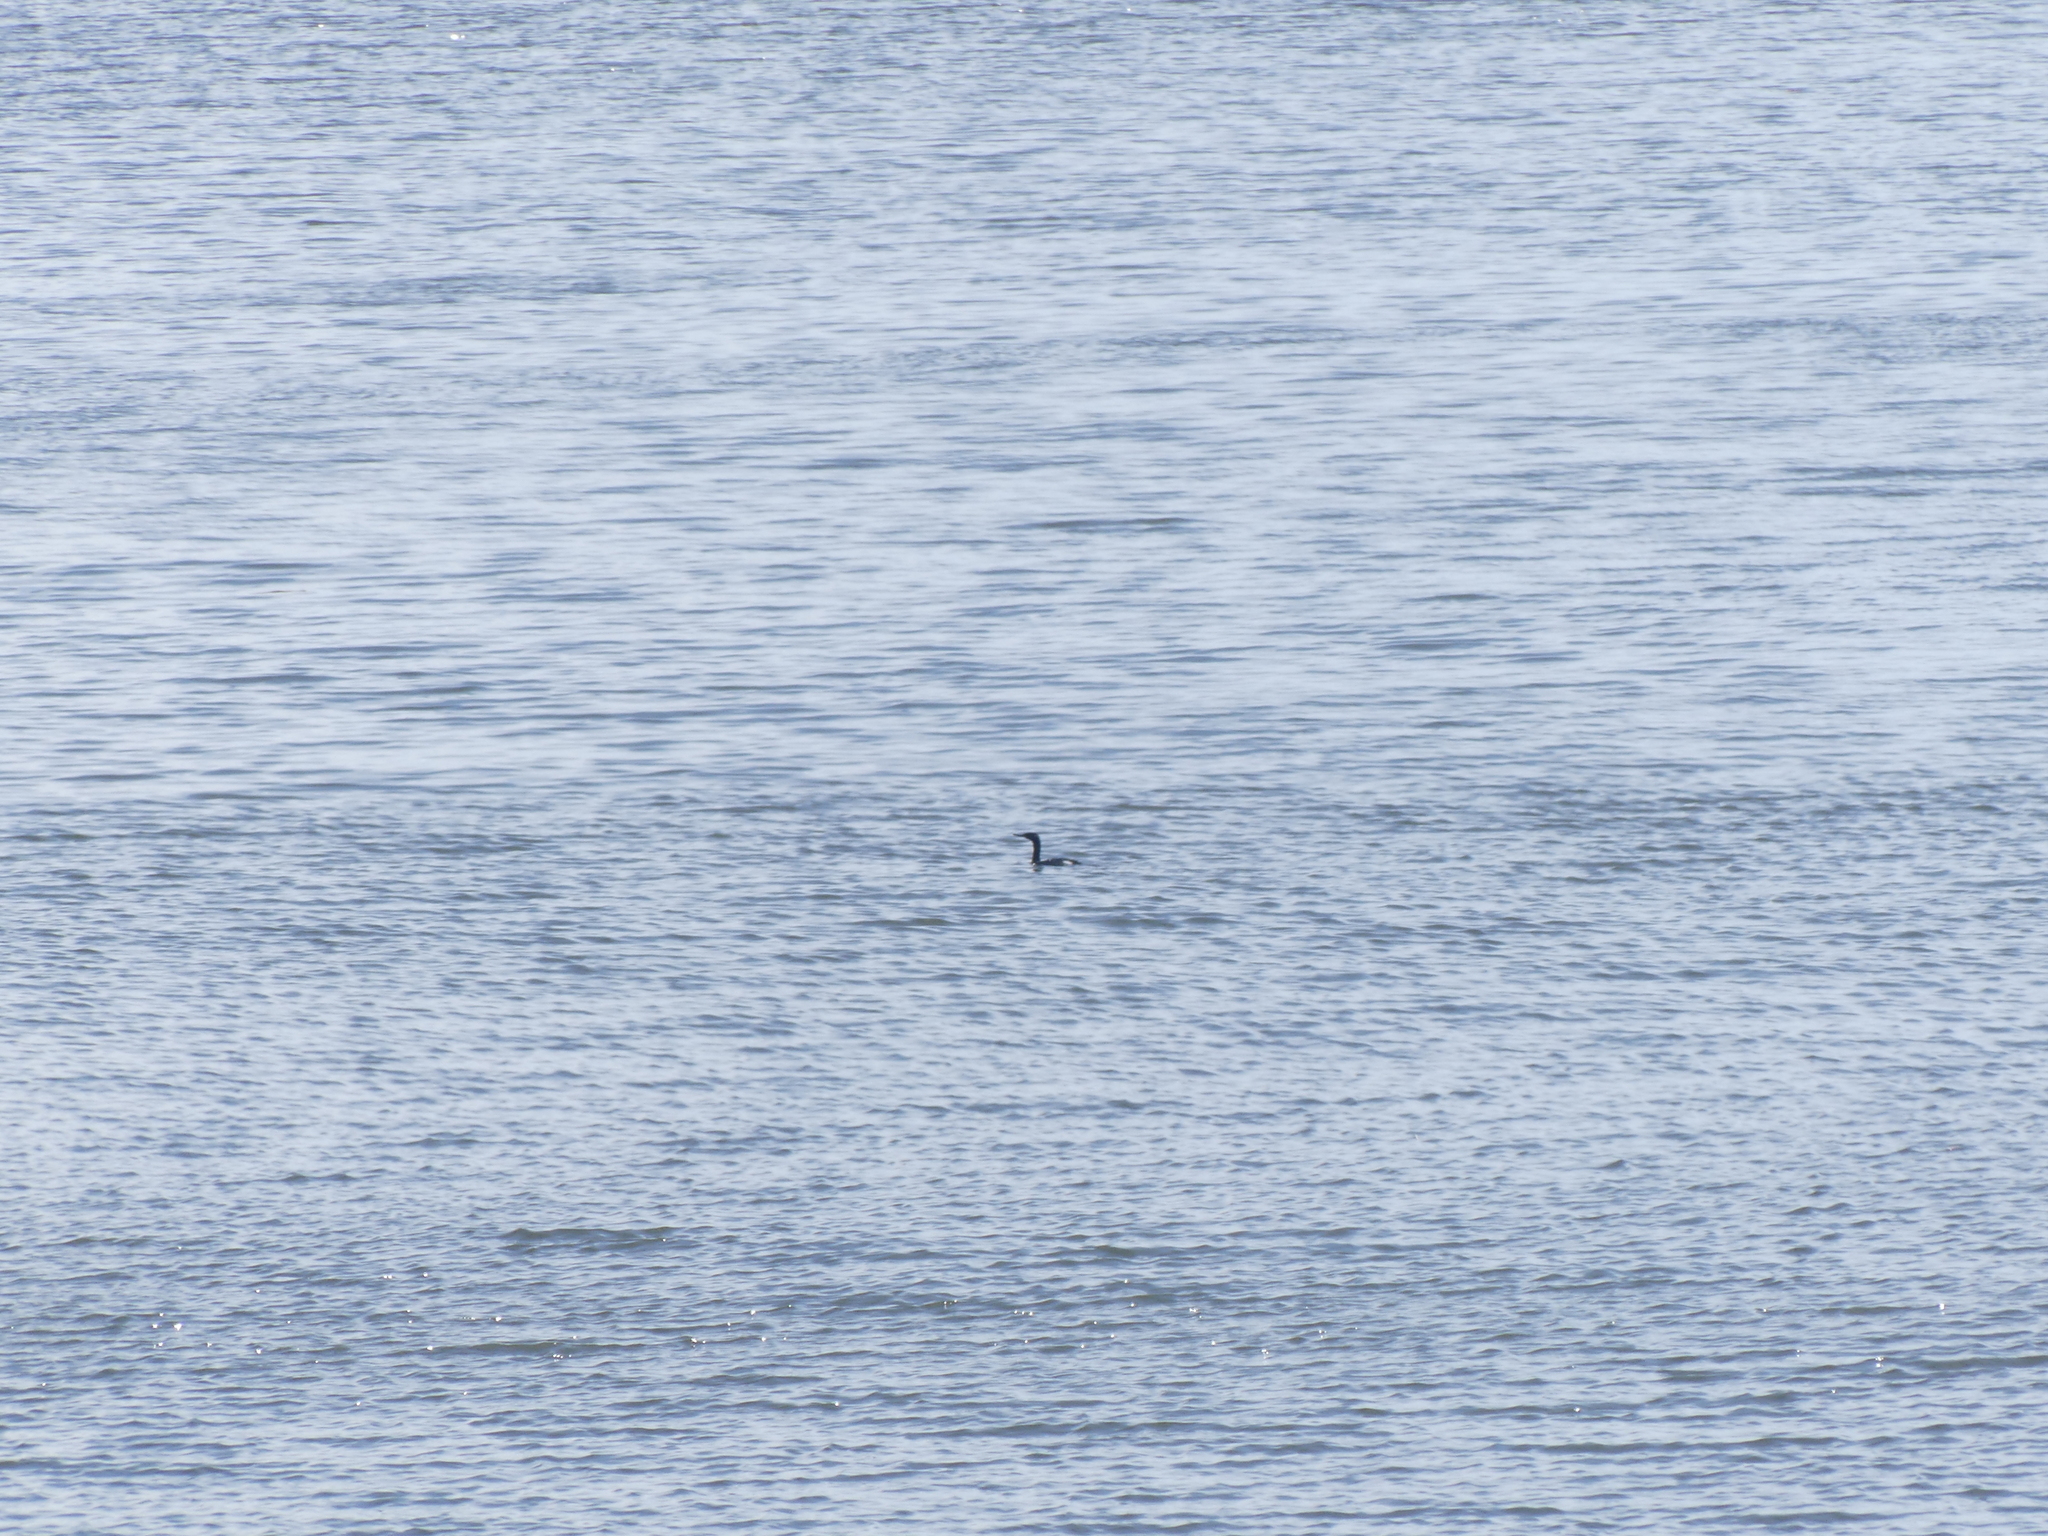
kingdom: Animalia
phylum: Chordata
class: Aves
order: Suliformes
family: Phalacrocoracidae
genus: Phalacrocorax
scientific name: Phalacrocorax pelagicus
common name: Pelagic cormorant
